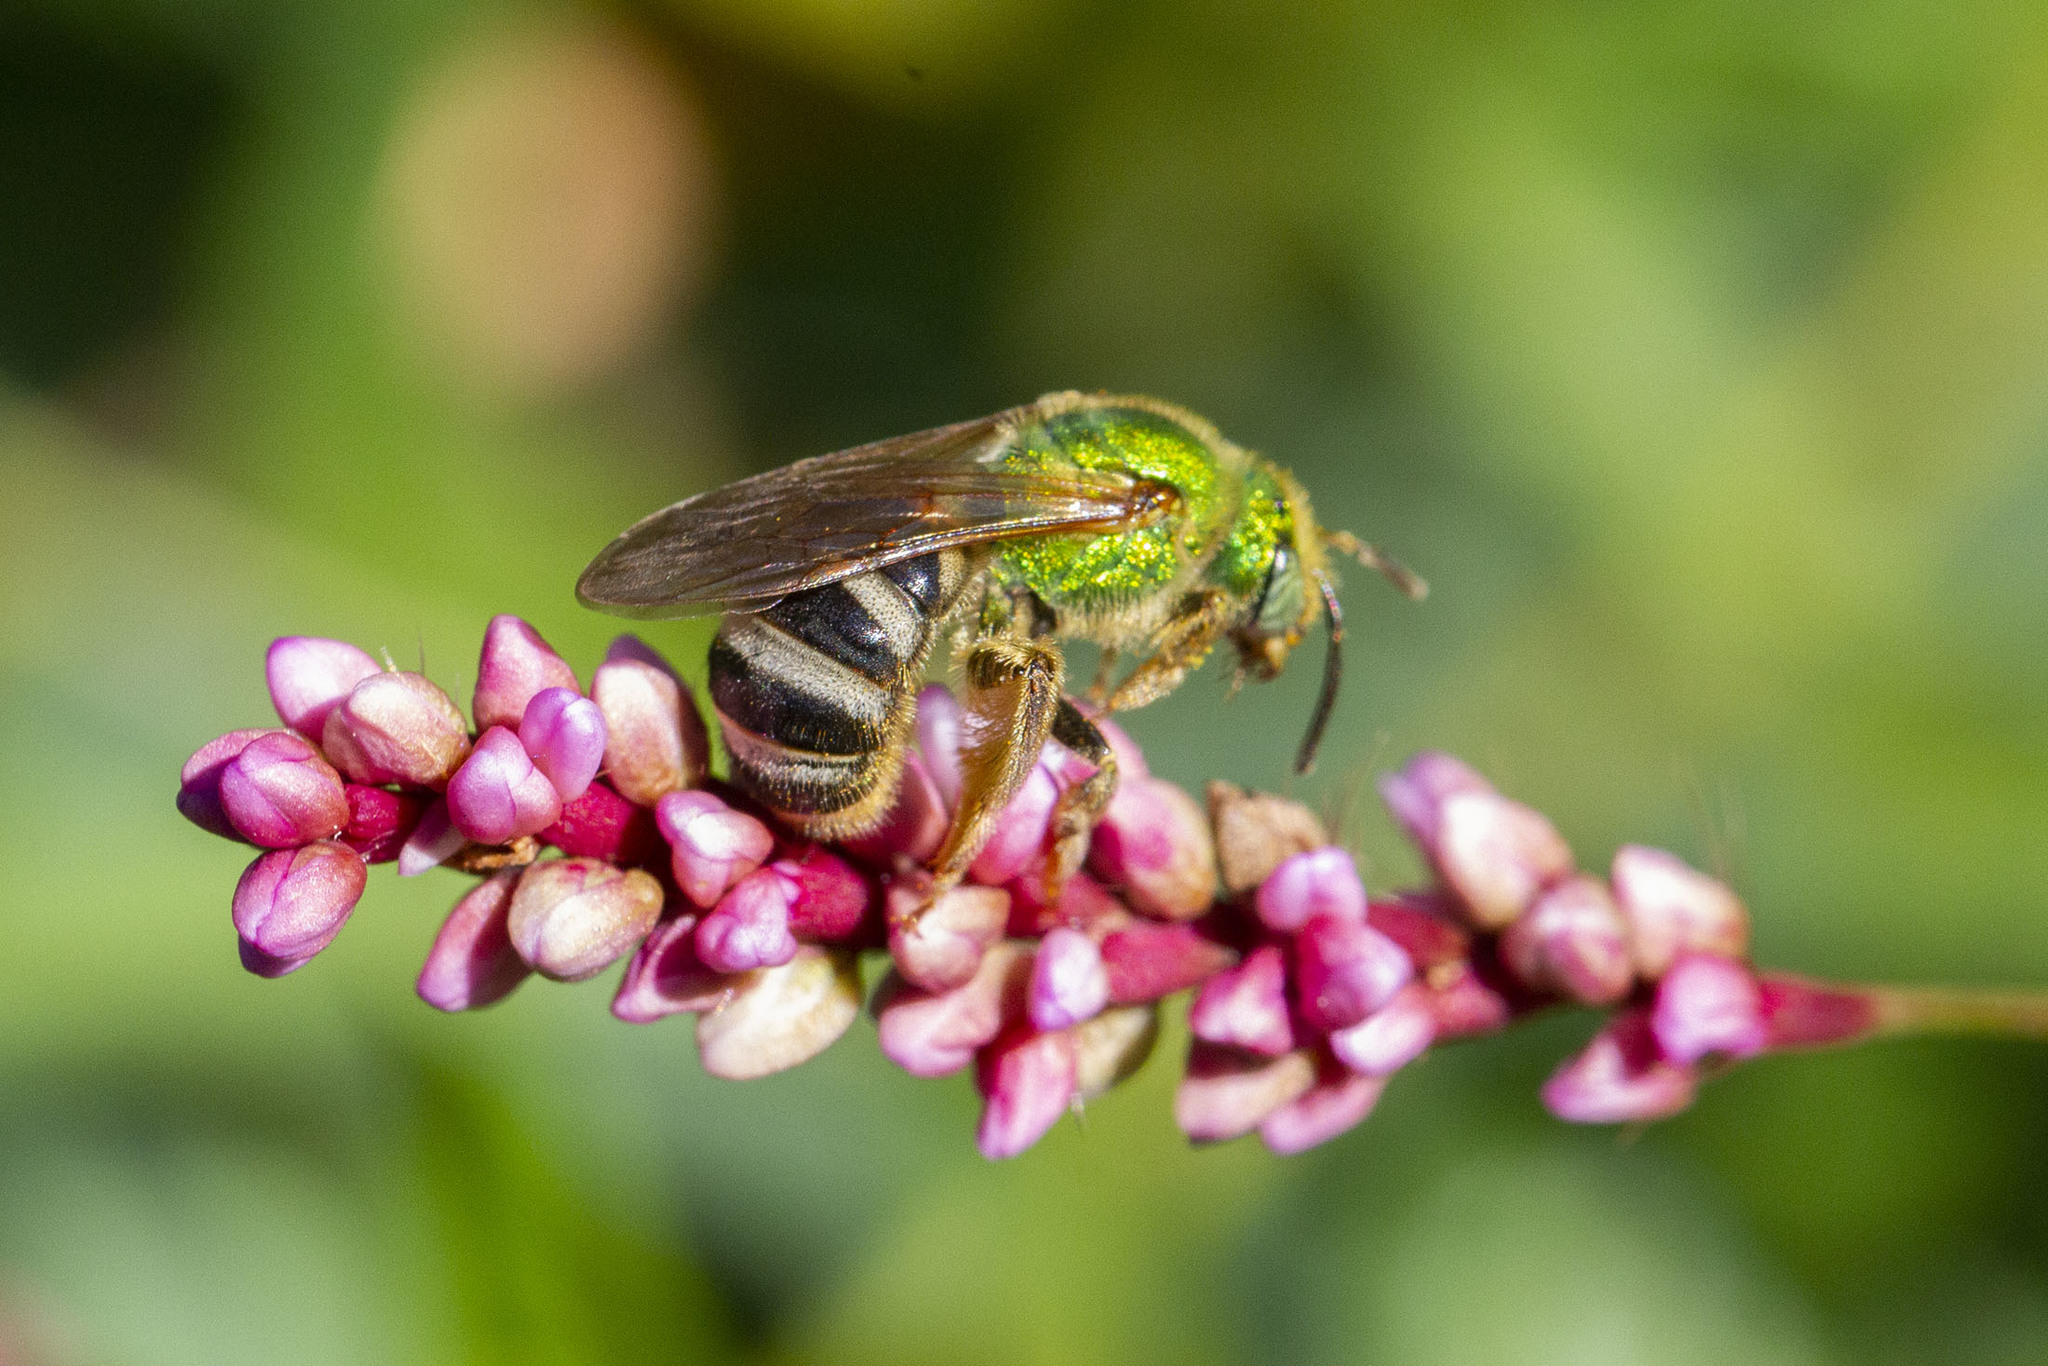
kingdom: Animalia
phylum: Arthropoda
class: Insecta
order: Hymenoptera
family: Halictidae
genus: Agapostemon
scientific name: Agapostemon virescens
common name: Bicolored striped sweat bee
